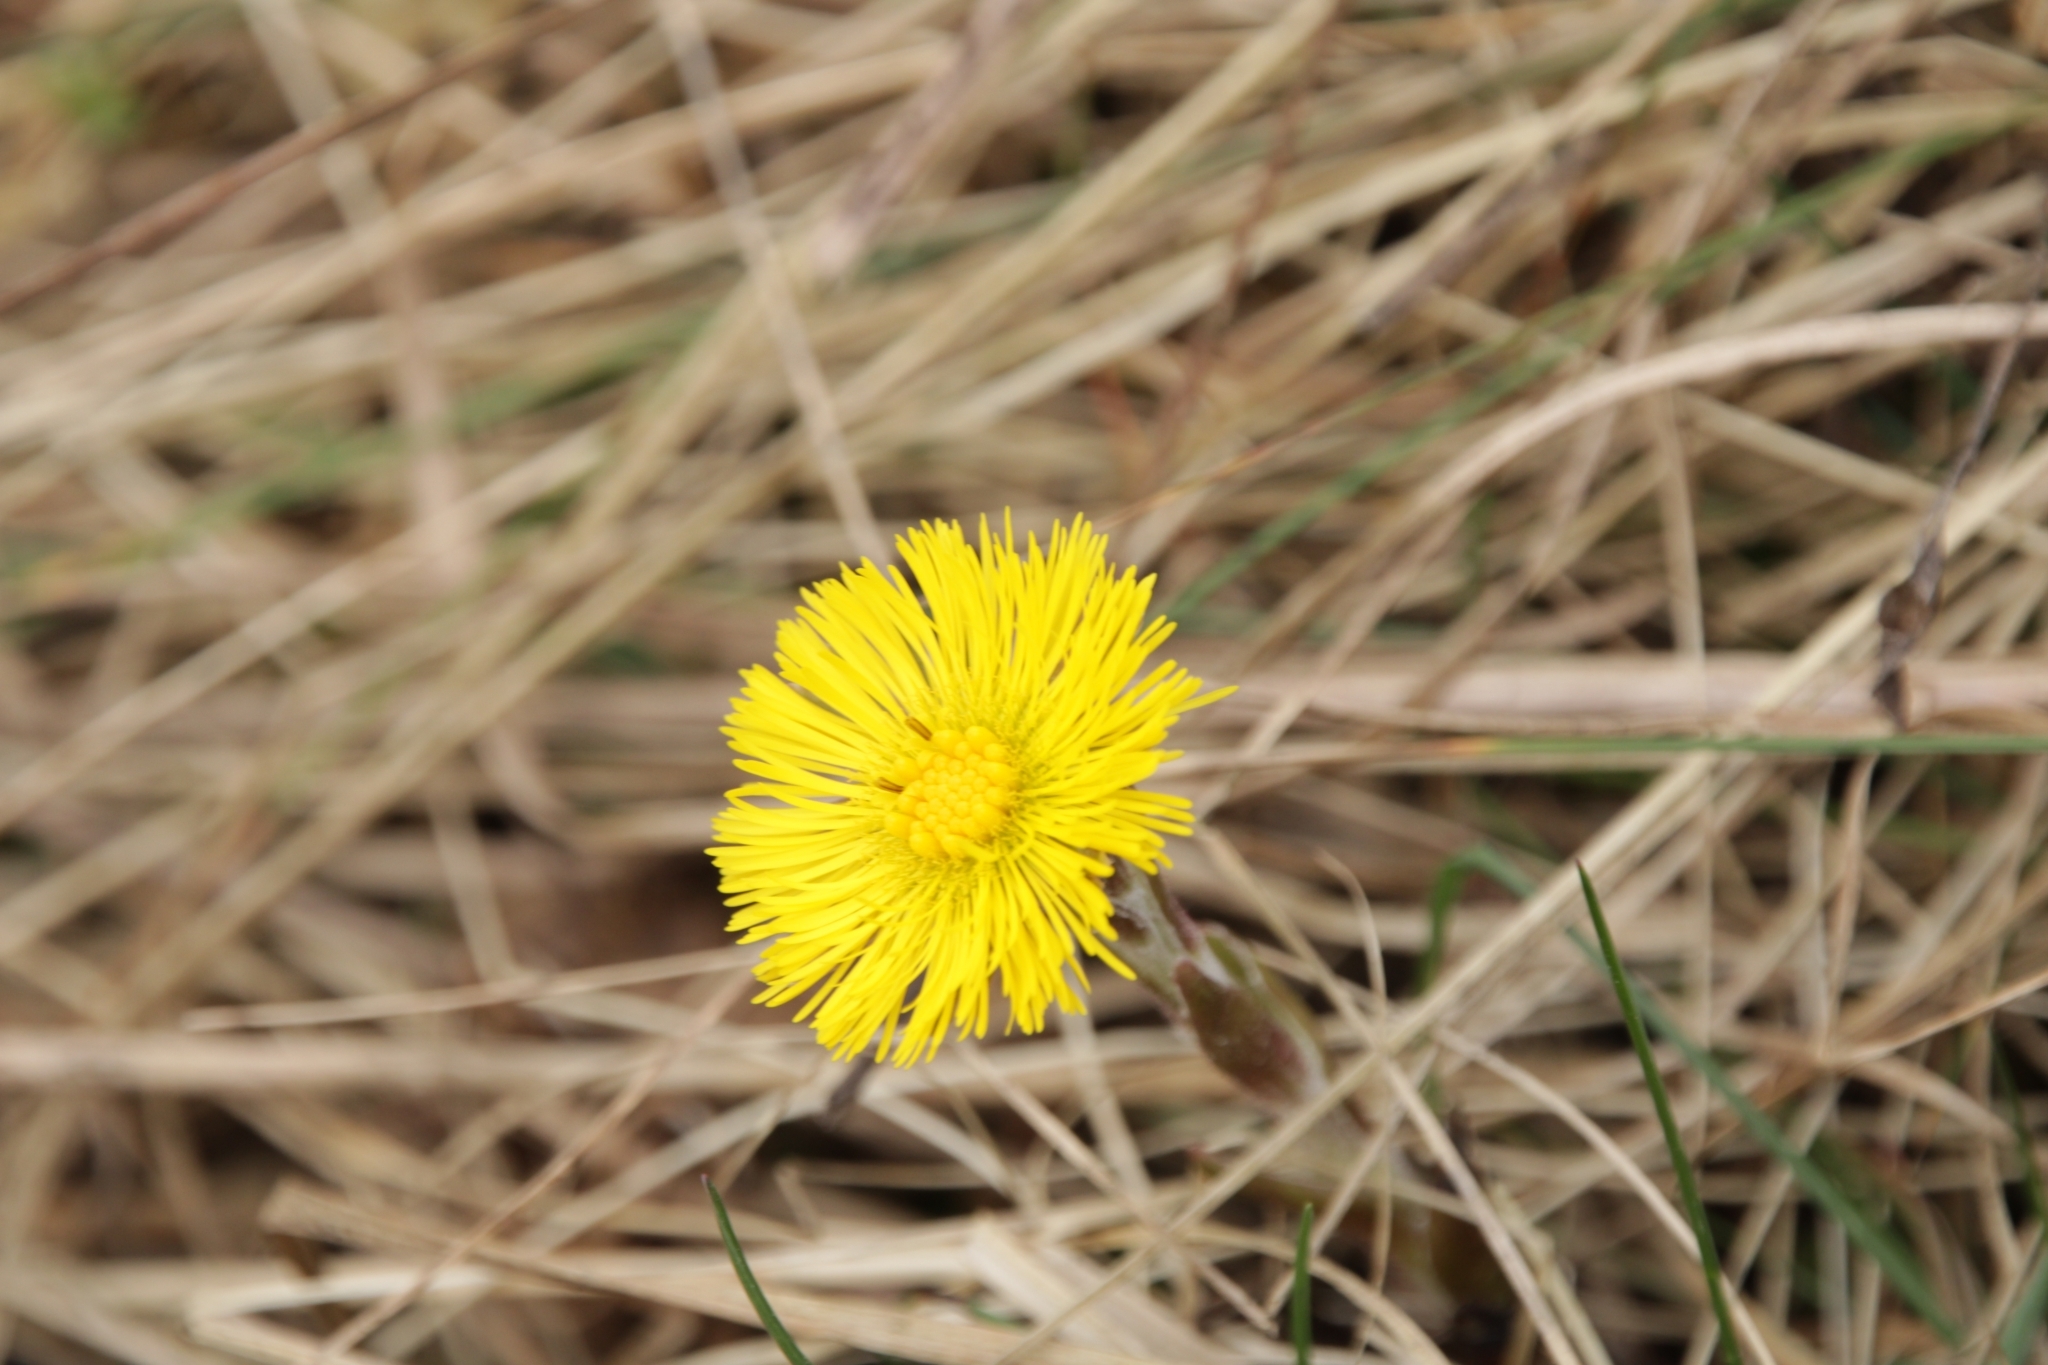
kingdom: Plantae
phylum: Tracheophyta
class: Magnoliopsida
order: Asterales
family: Asteraceae
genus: Tussilago
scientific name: Tussilago farfara
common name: Coltsfoot
